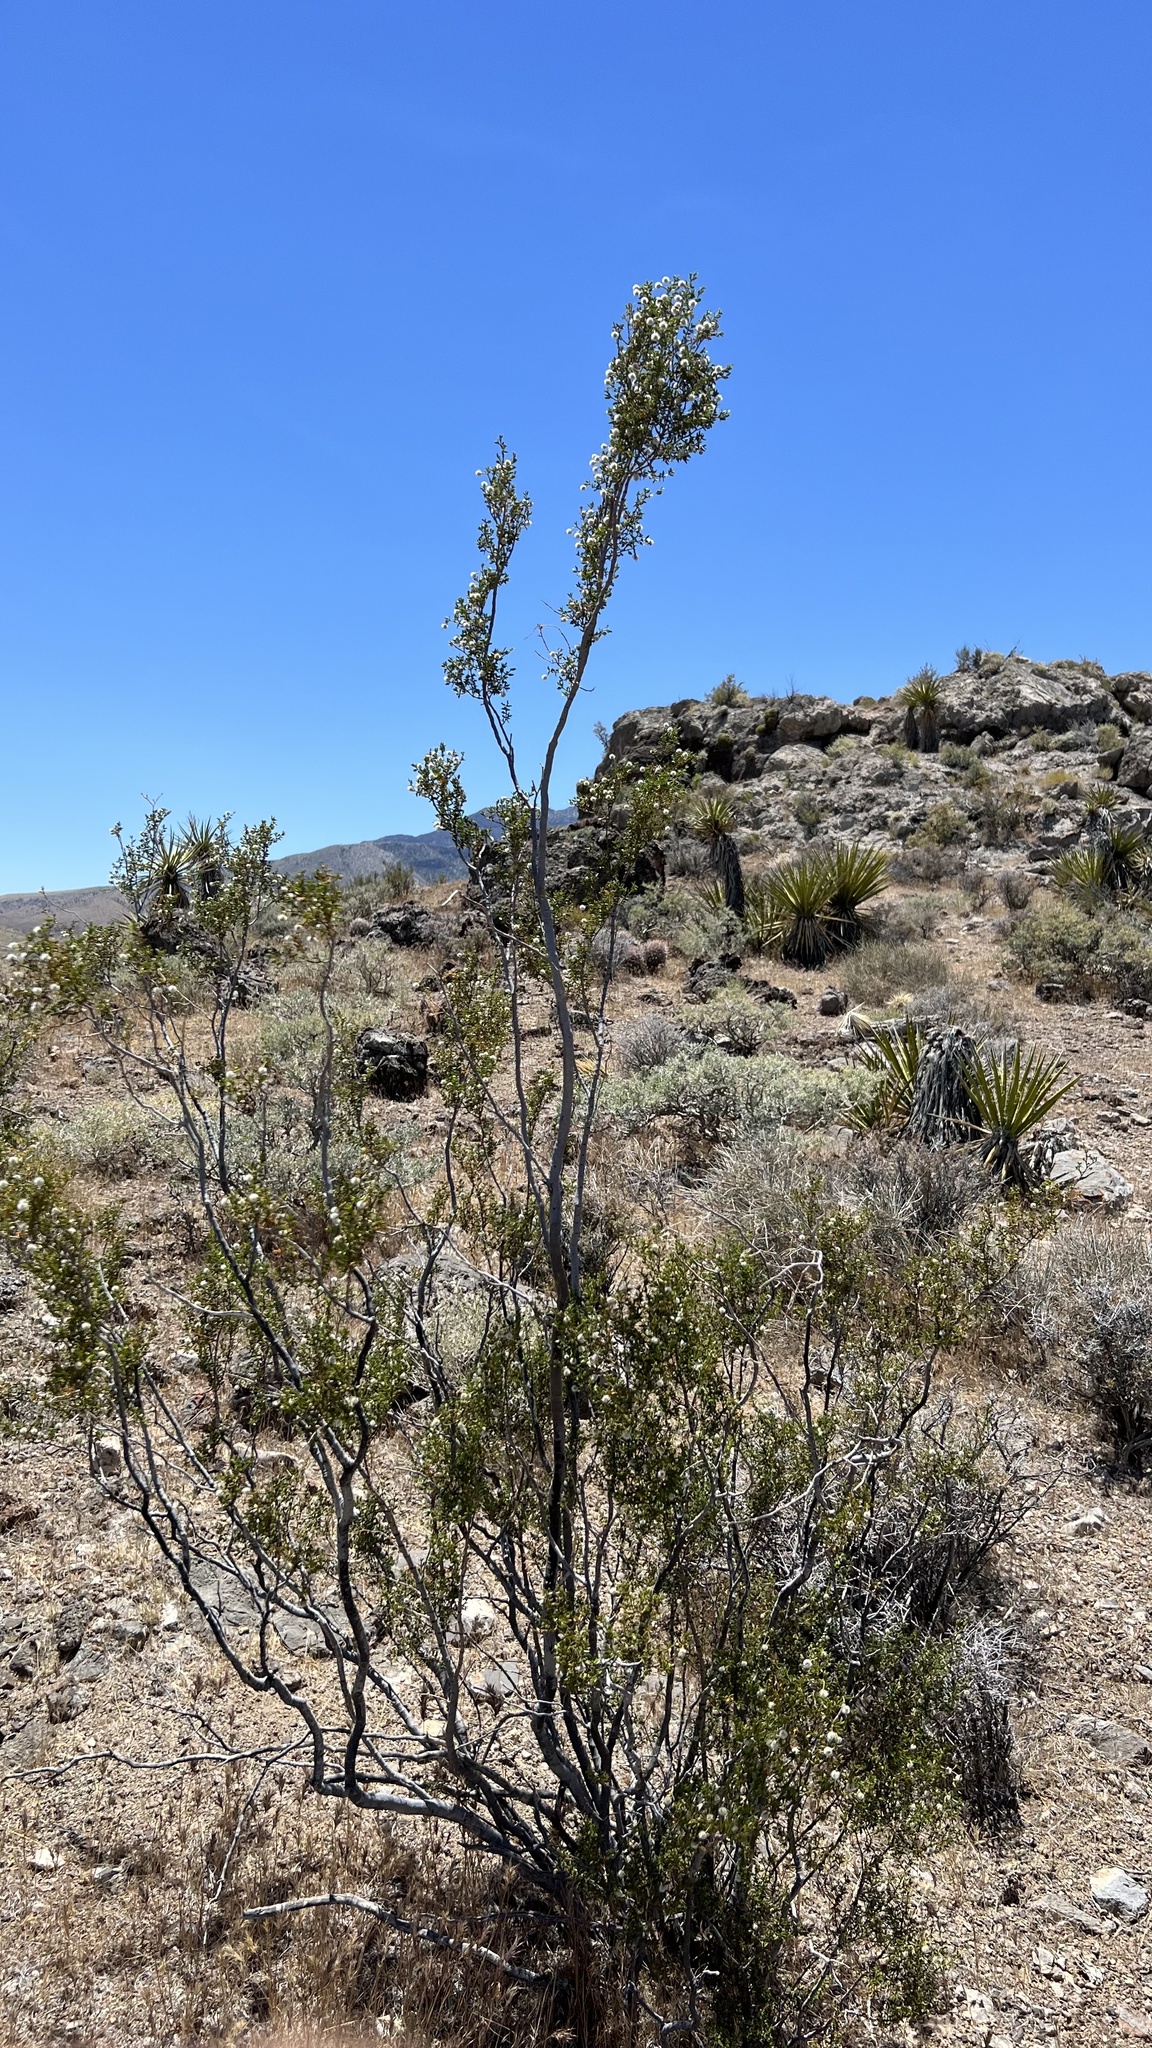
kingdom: Plantae
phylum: Tracheophyta
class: Magnoliopsida
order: Zygophyllales
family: Zygophyllaceae
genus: Larrea
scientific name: Larrea tridentata
